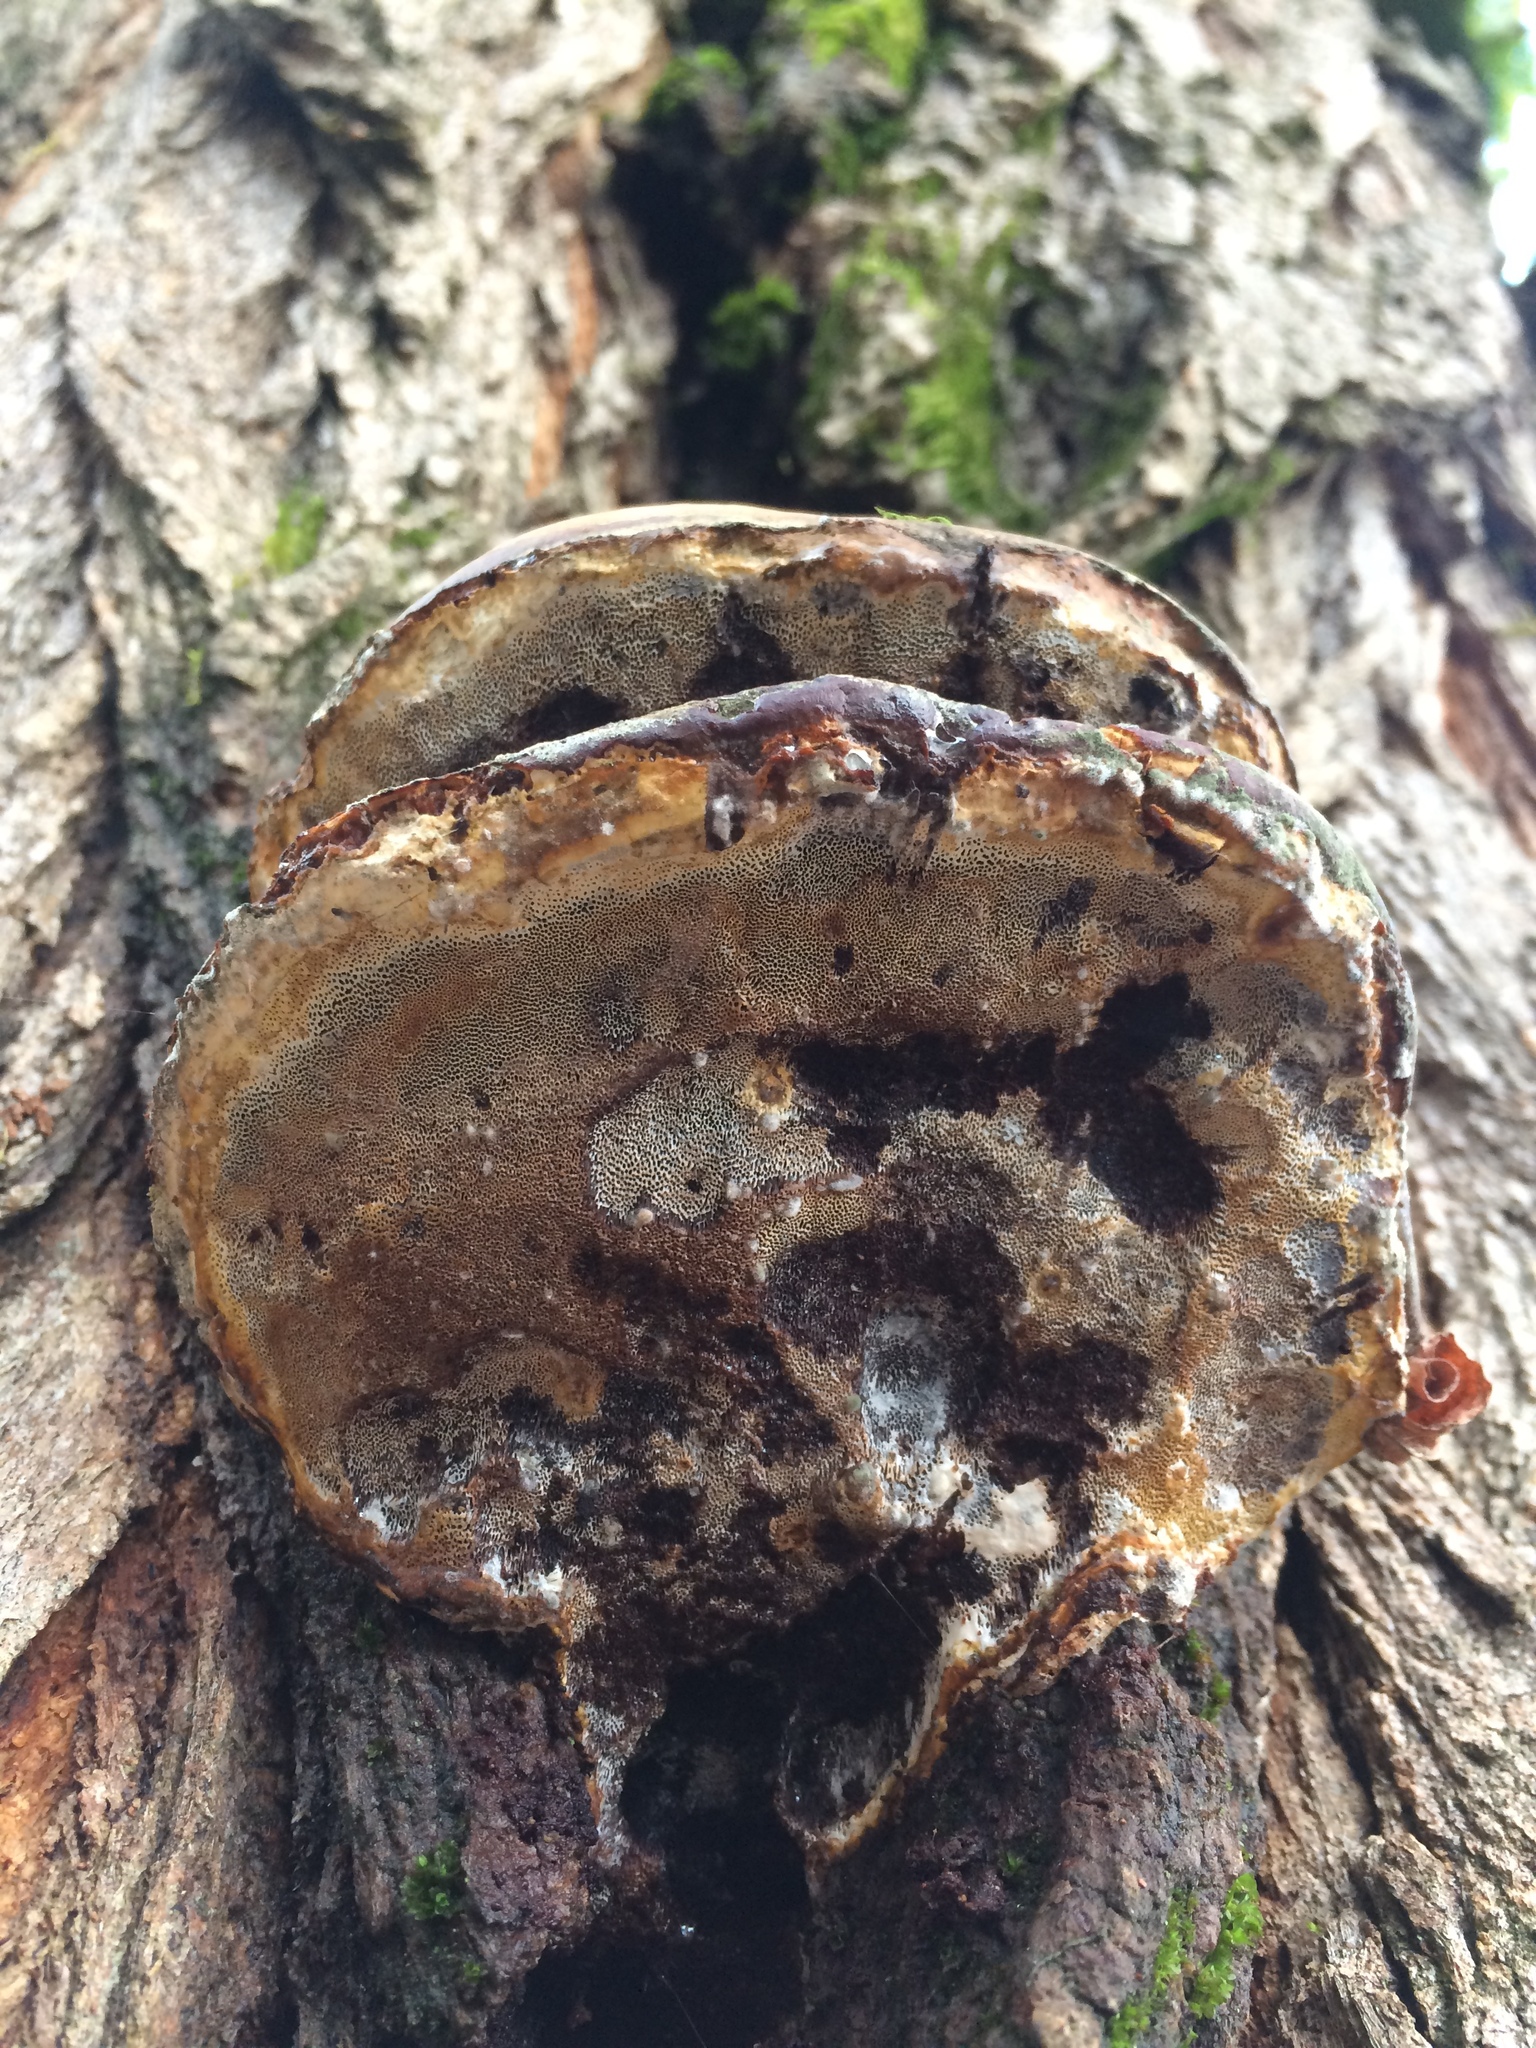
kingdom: Fungi
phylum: Basidiomycota
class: Agaricomycetes
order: Polyporales
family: Polyporaceae
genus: Ganoderma
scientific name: Ganoderma oregonense
